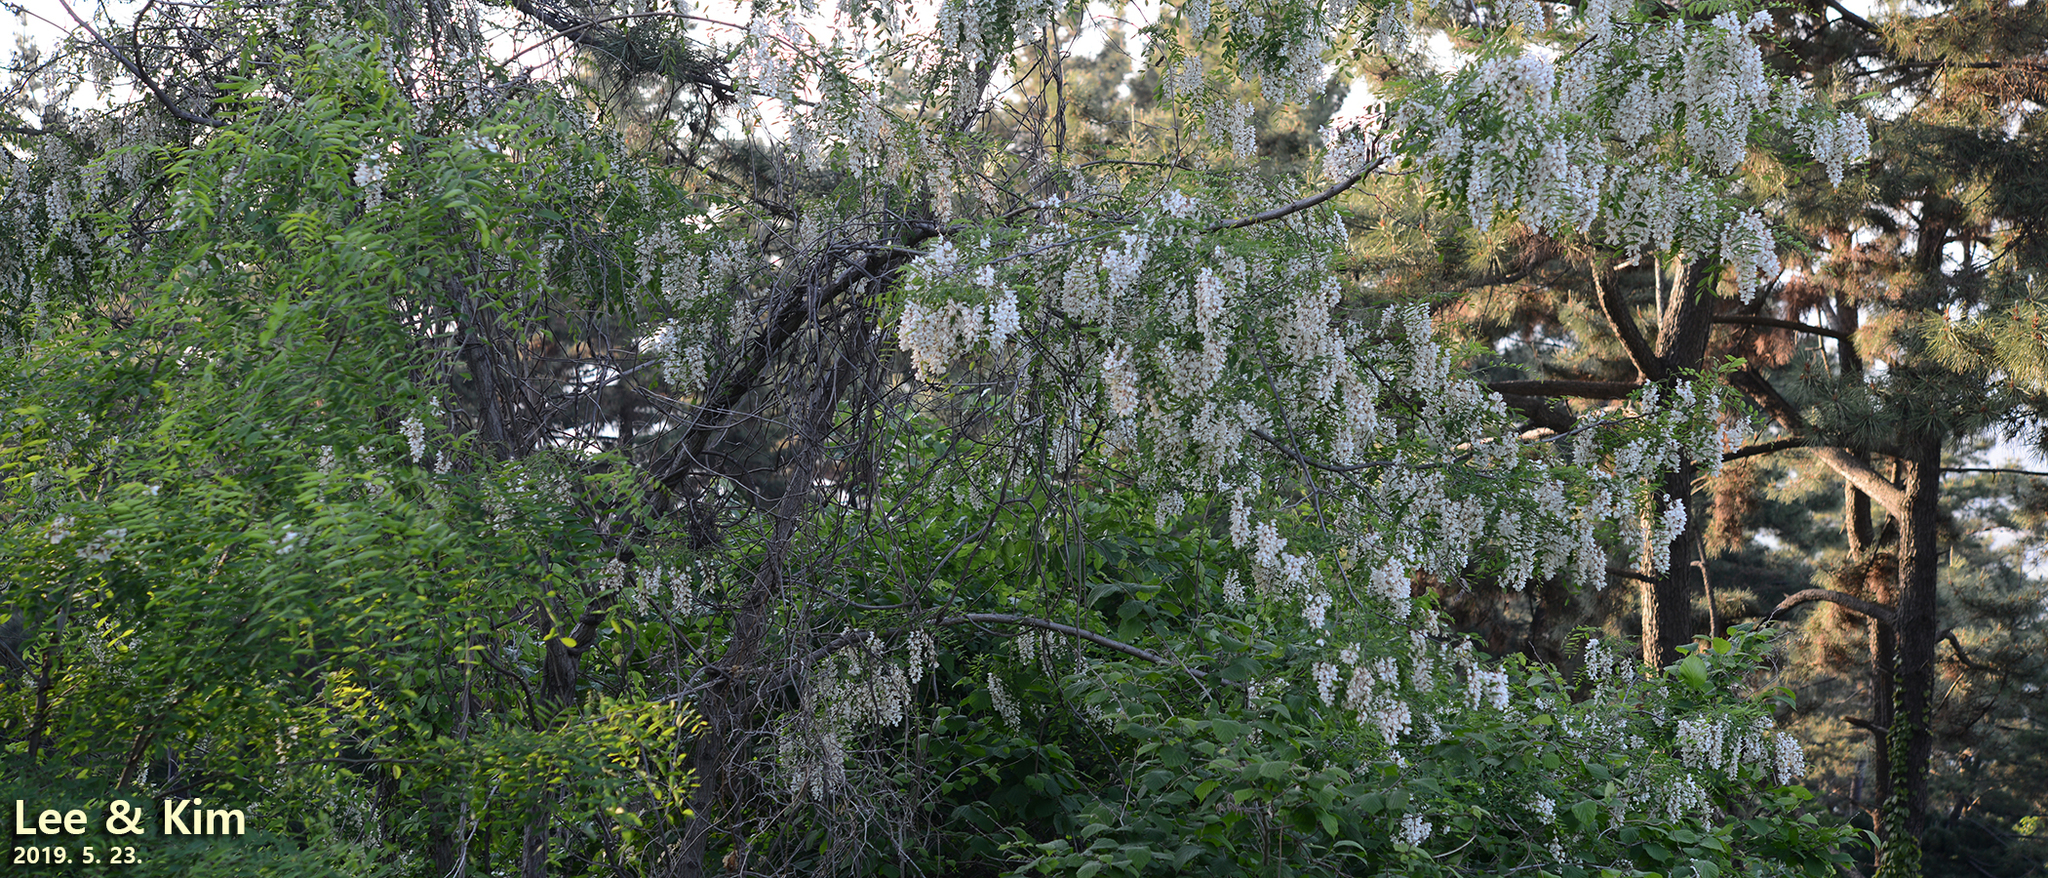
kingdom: Plantae
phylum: Tracheophyta
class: Magnoliopsida
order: Fabales
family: Fabaceae
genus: Robinia
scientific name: Robinia pseudoacacia
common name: Black locust
